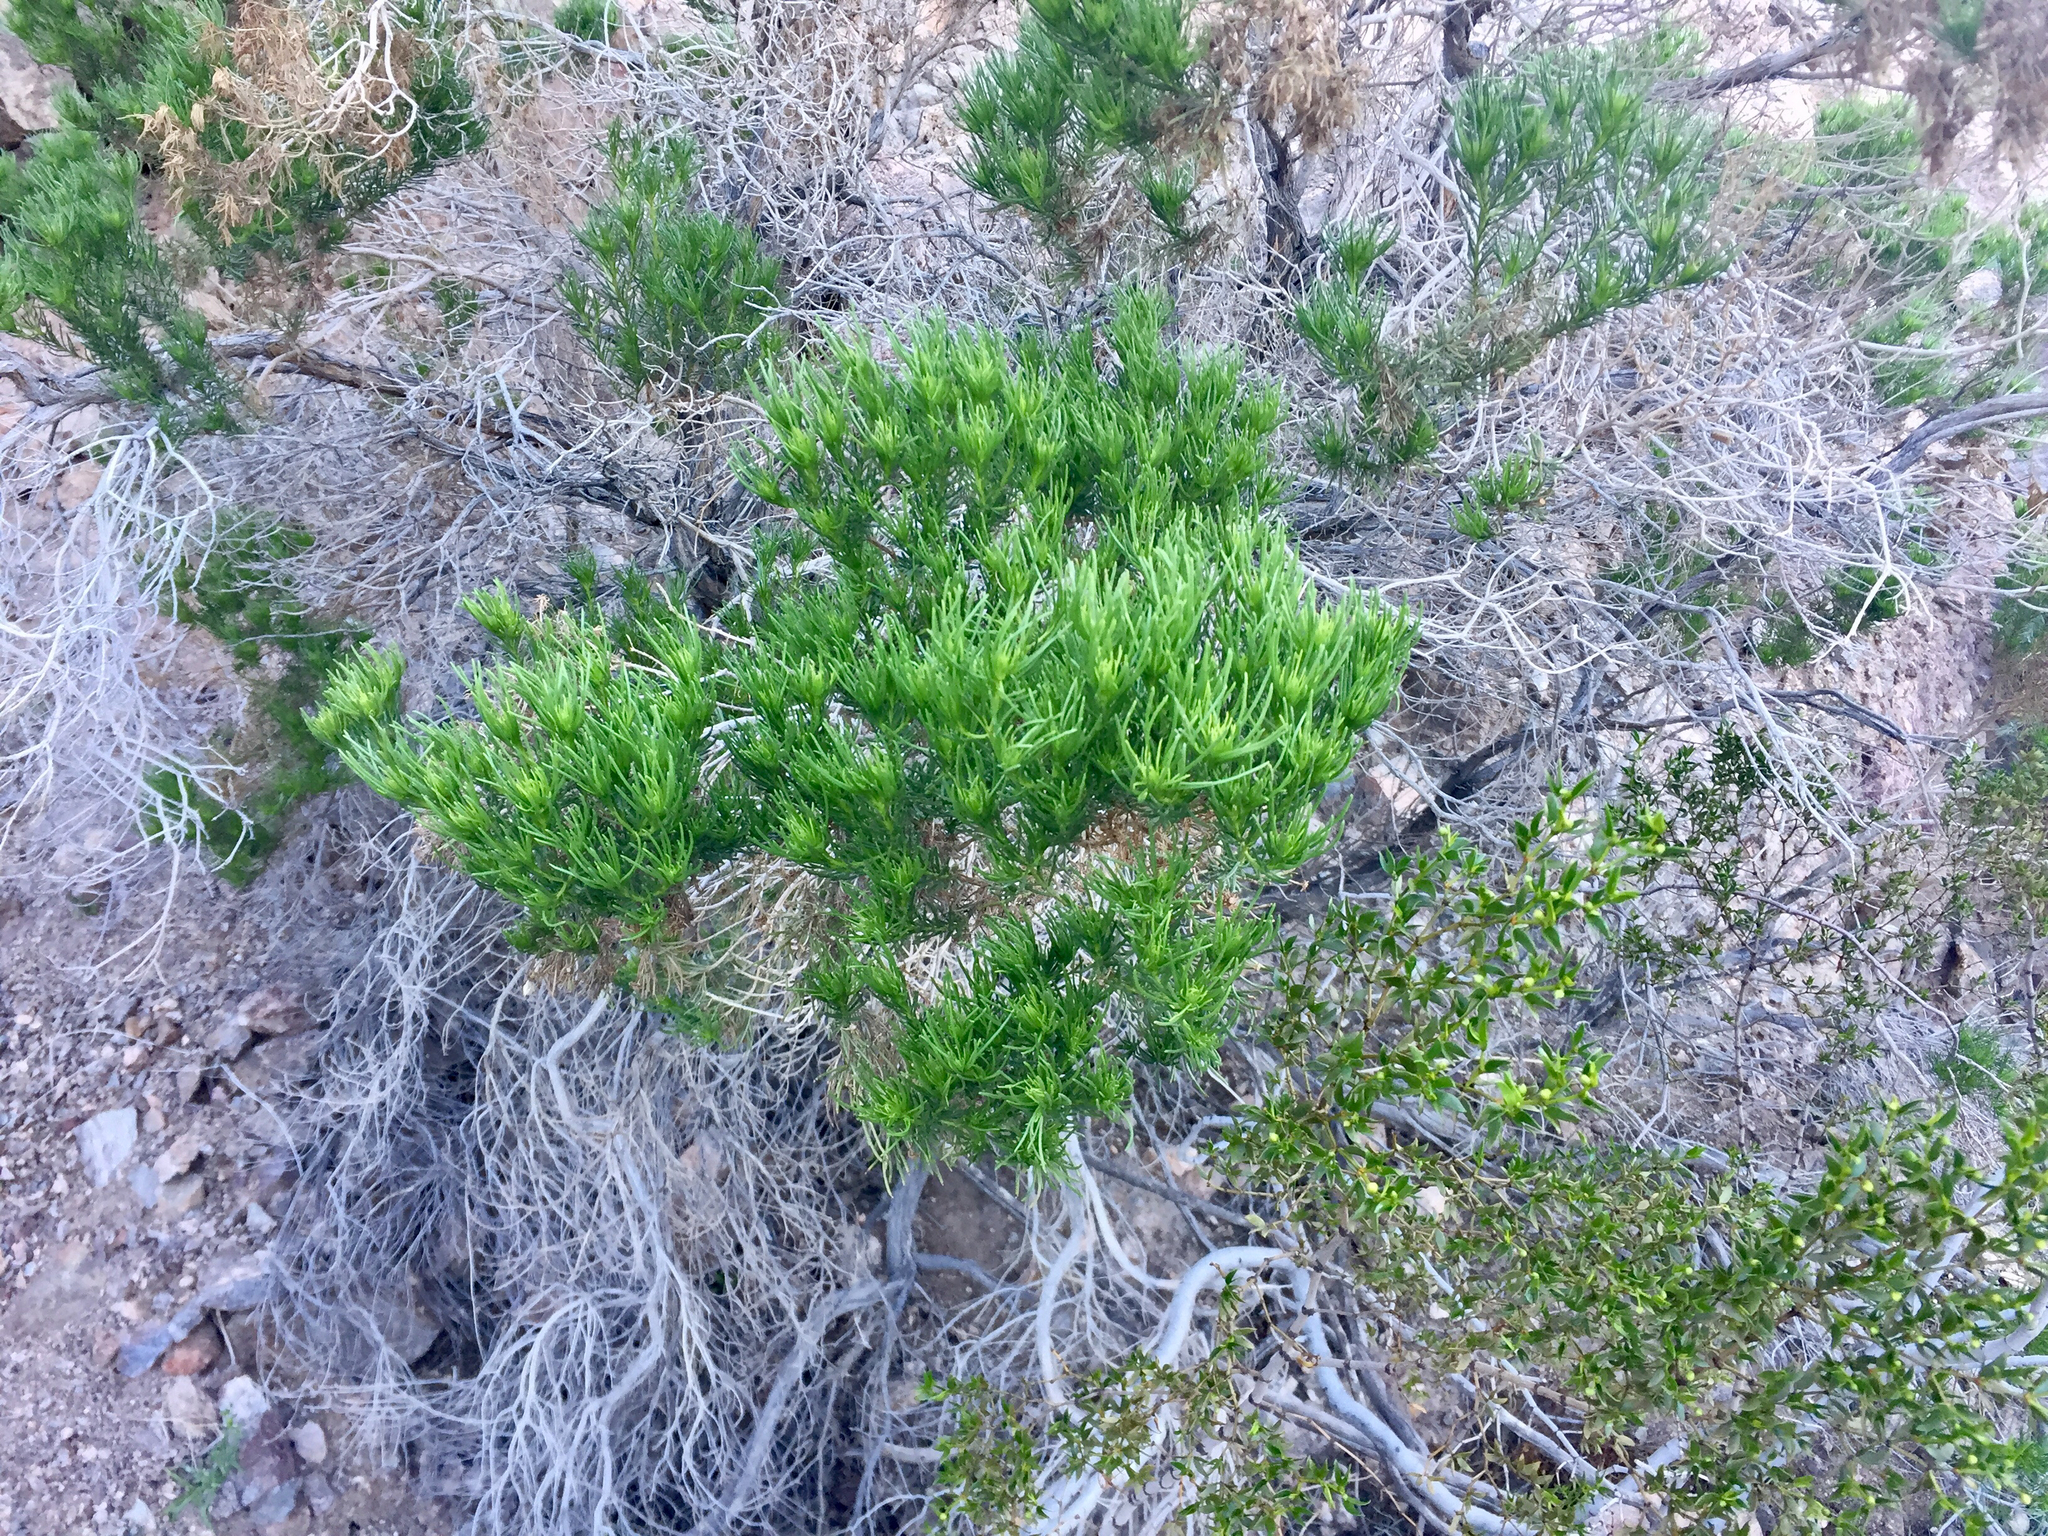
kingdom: Plantae
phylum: Tracheophyta
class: Magnoliopsida
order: Asterales
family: Asteraceae
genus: Peucephyllum
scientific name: Peucephyllum schottii
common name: Pygmy-cedar
